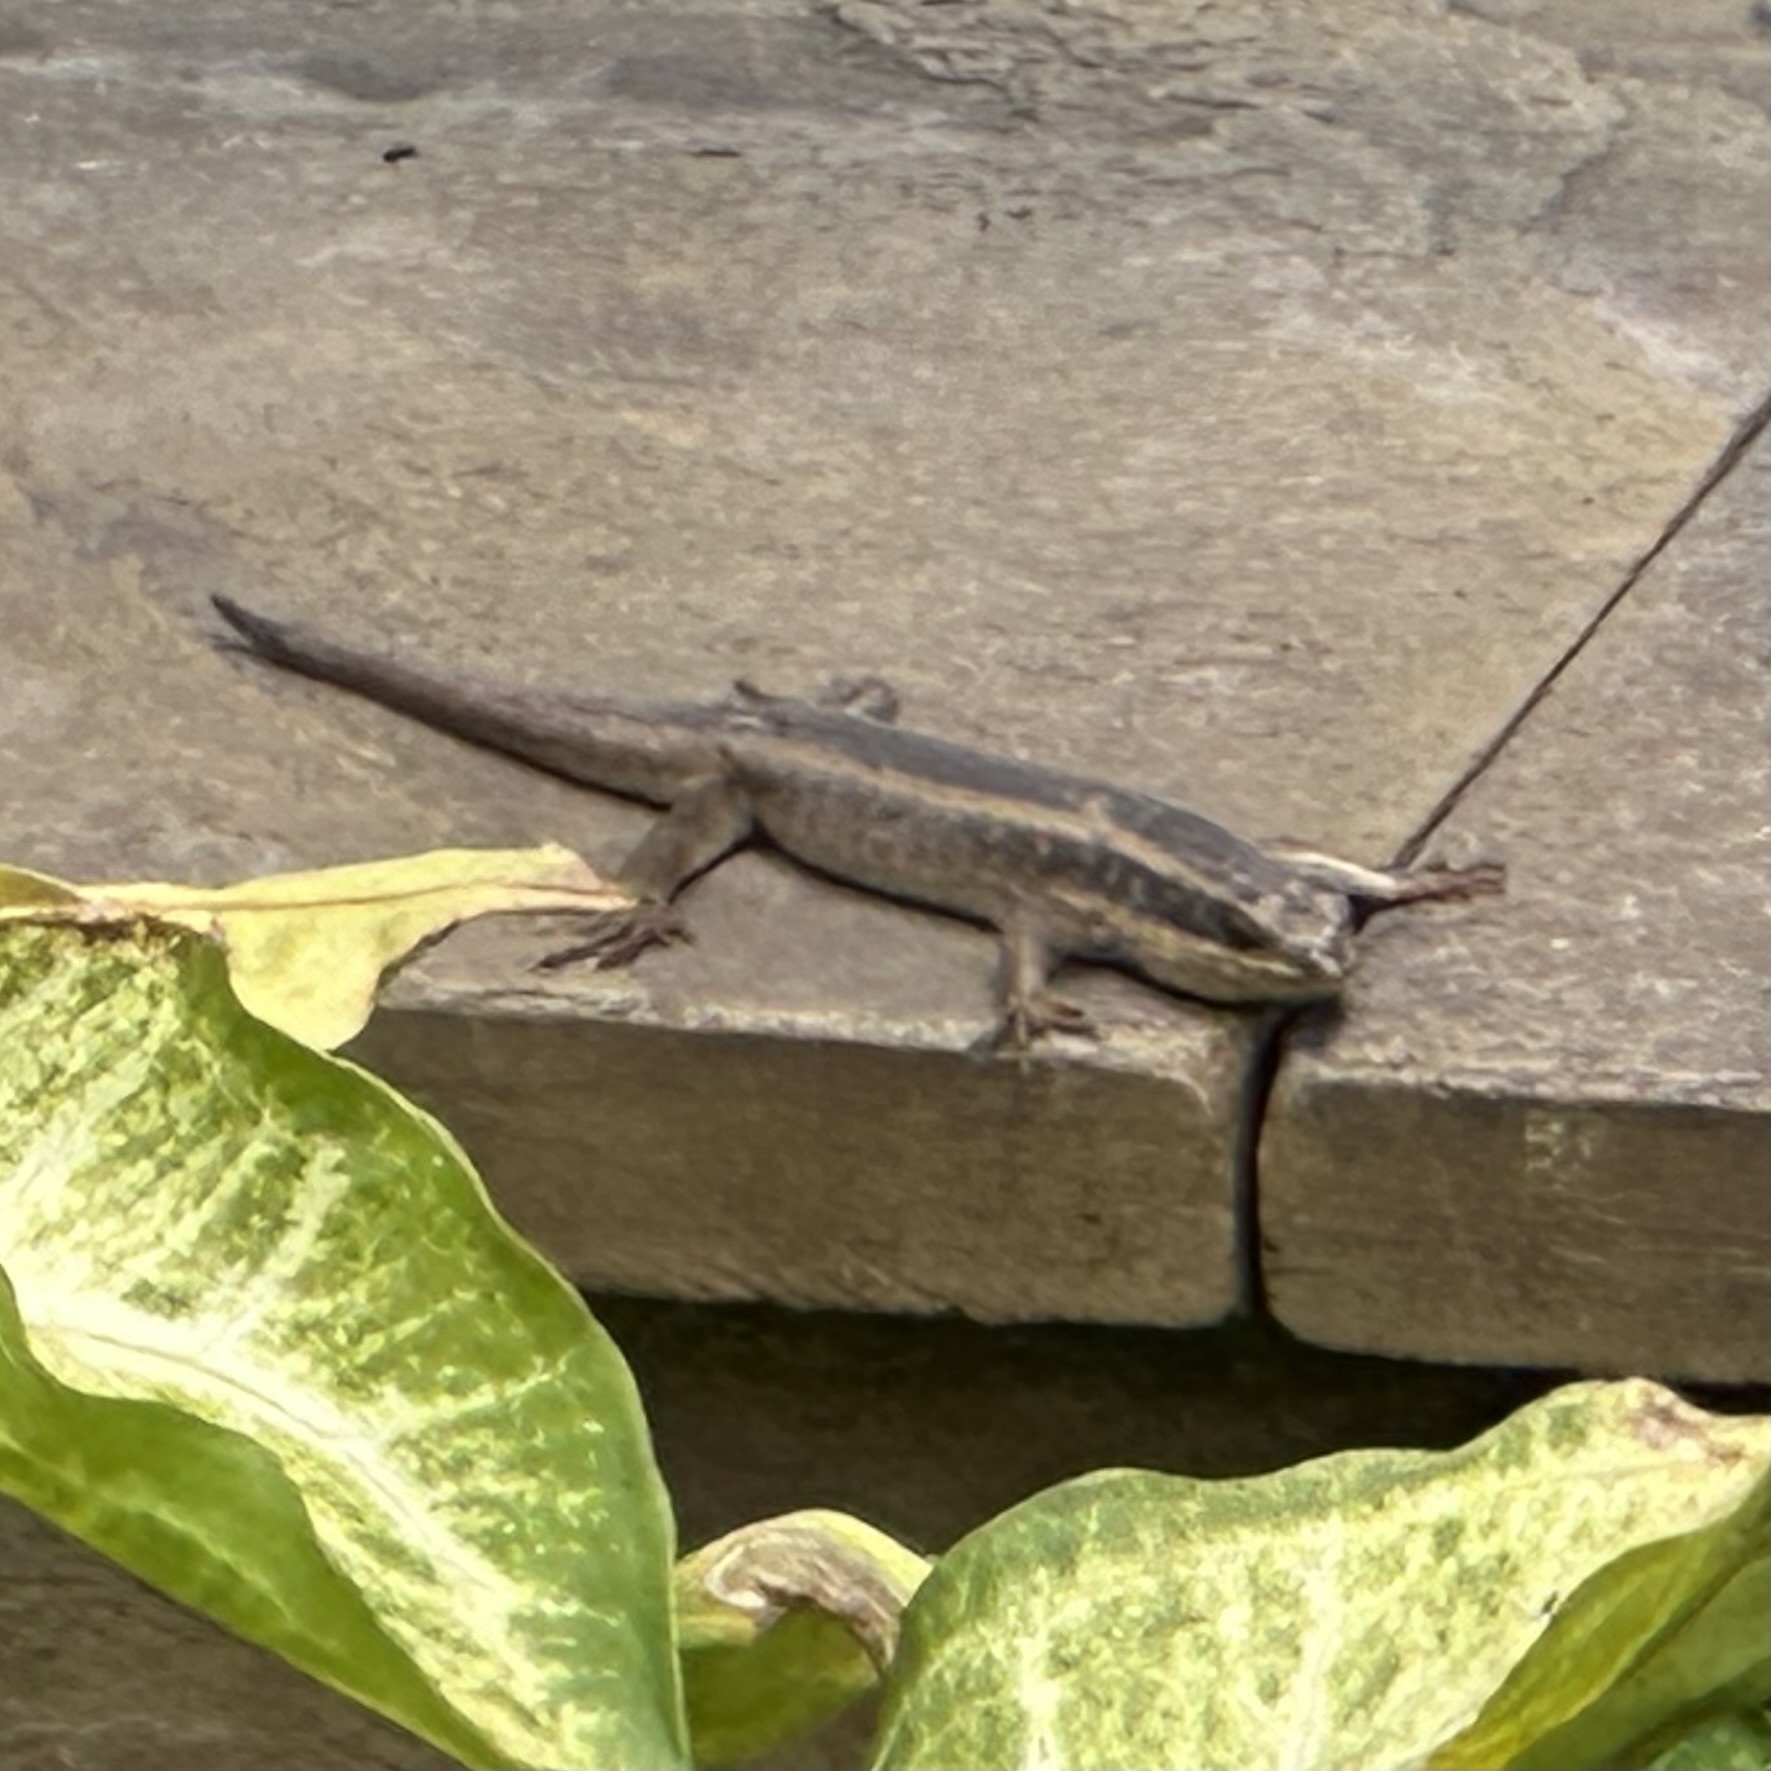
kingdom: Animalia
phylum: Chordata
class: Squamata
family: Scincidae
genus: Trachylepis
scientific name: Trachylepis striata
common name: African striped mabuya
